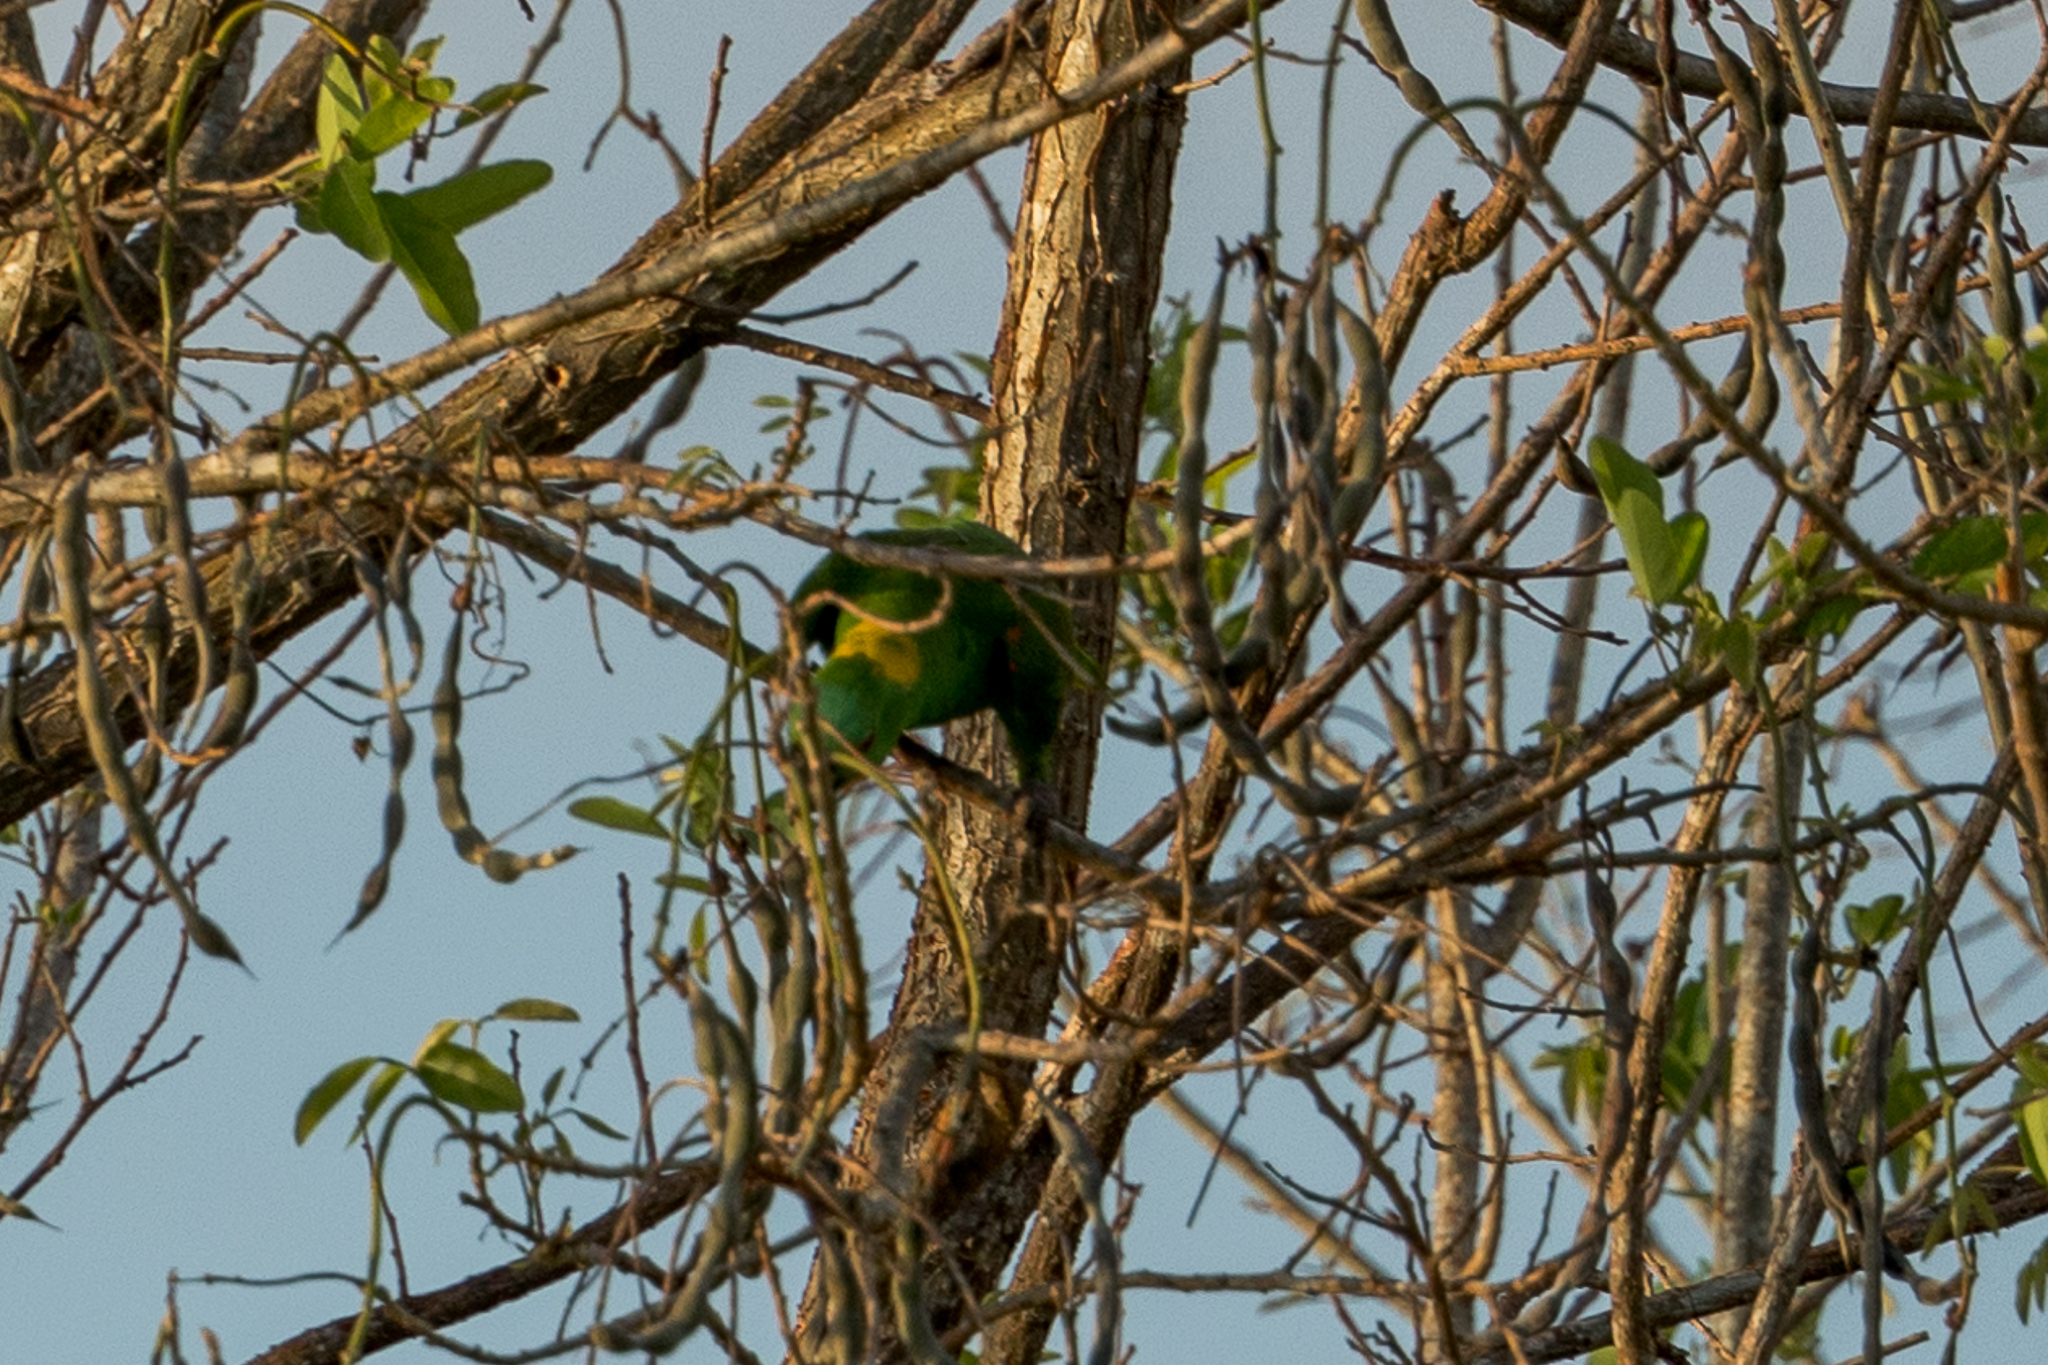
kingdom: Animalia
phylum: Chordata
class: Aves
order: Psittaciformes
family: Psittacidae
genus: Amazona
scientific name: Amazona auropalliata
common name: Yellow-naped amazon
